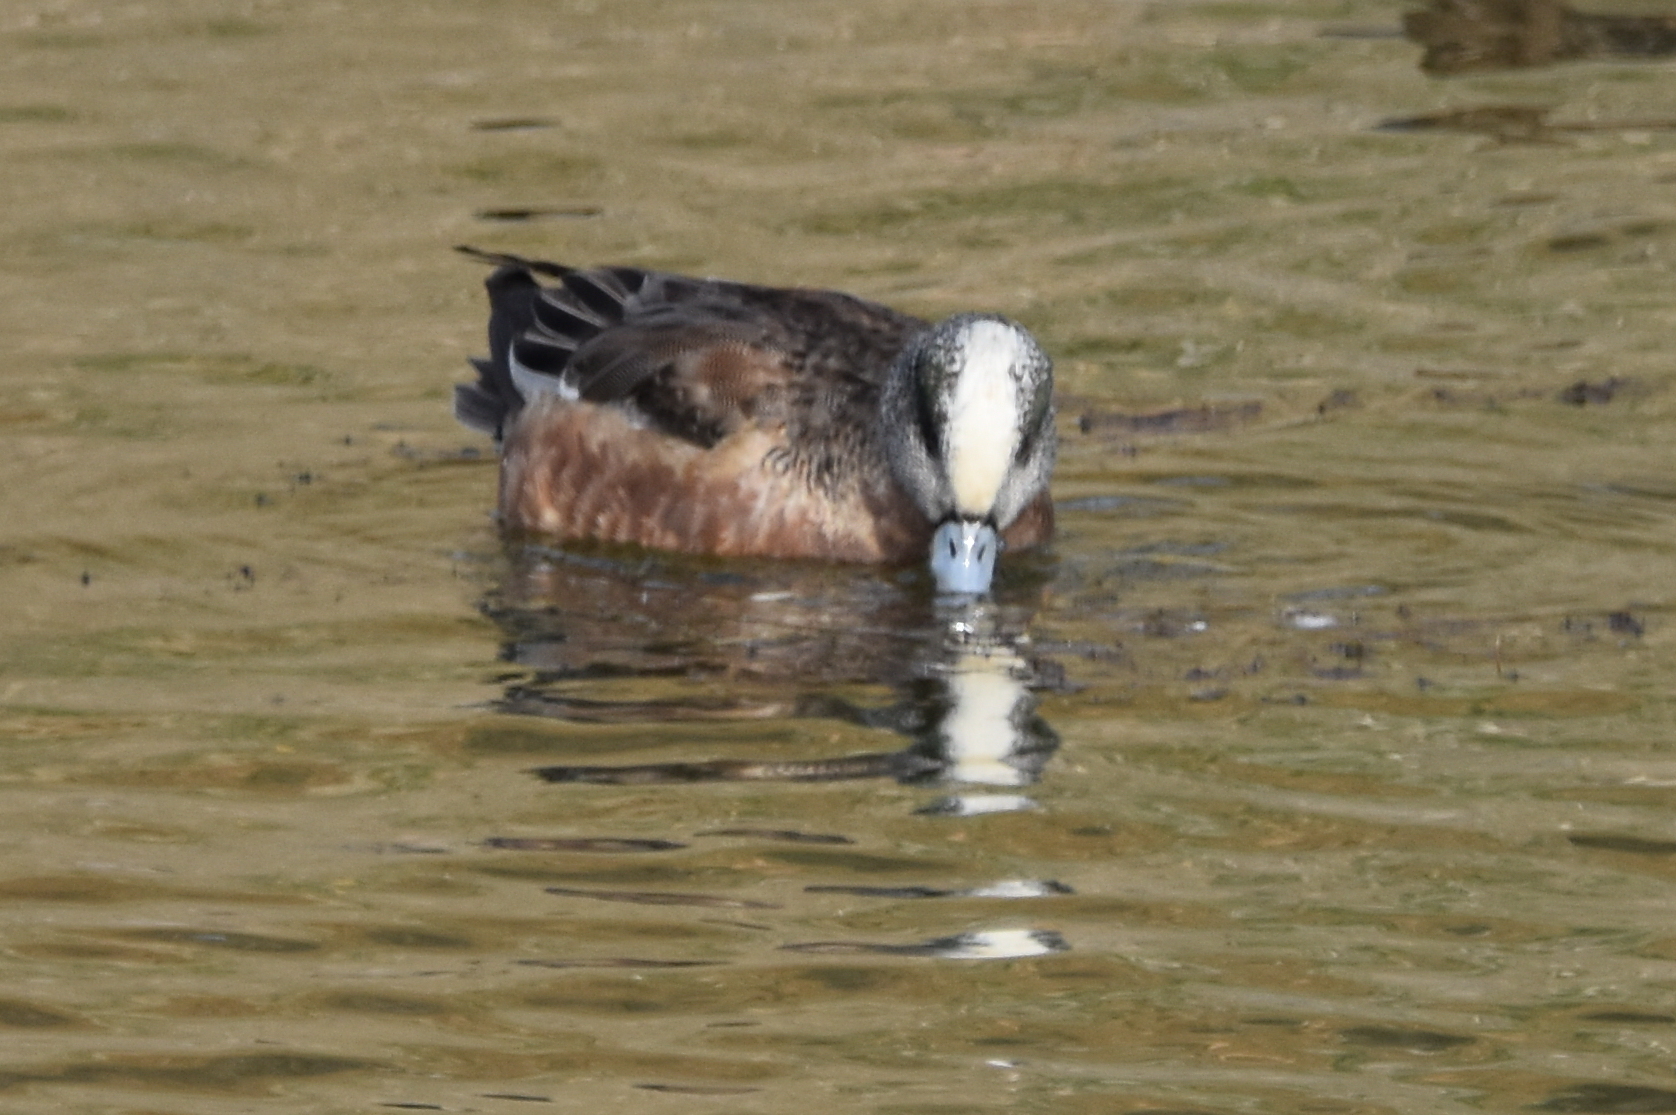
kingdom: Animalia
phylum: Chordata
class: Aves
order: Anseriformes
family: Anatidae
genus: Mareca
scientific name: Mareca americana
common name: American wigeon
